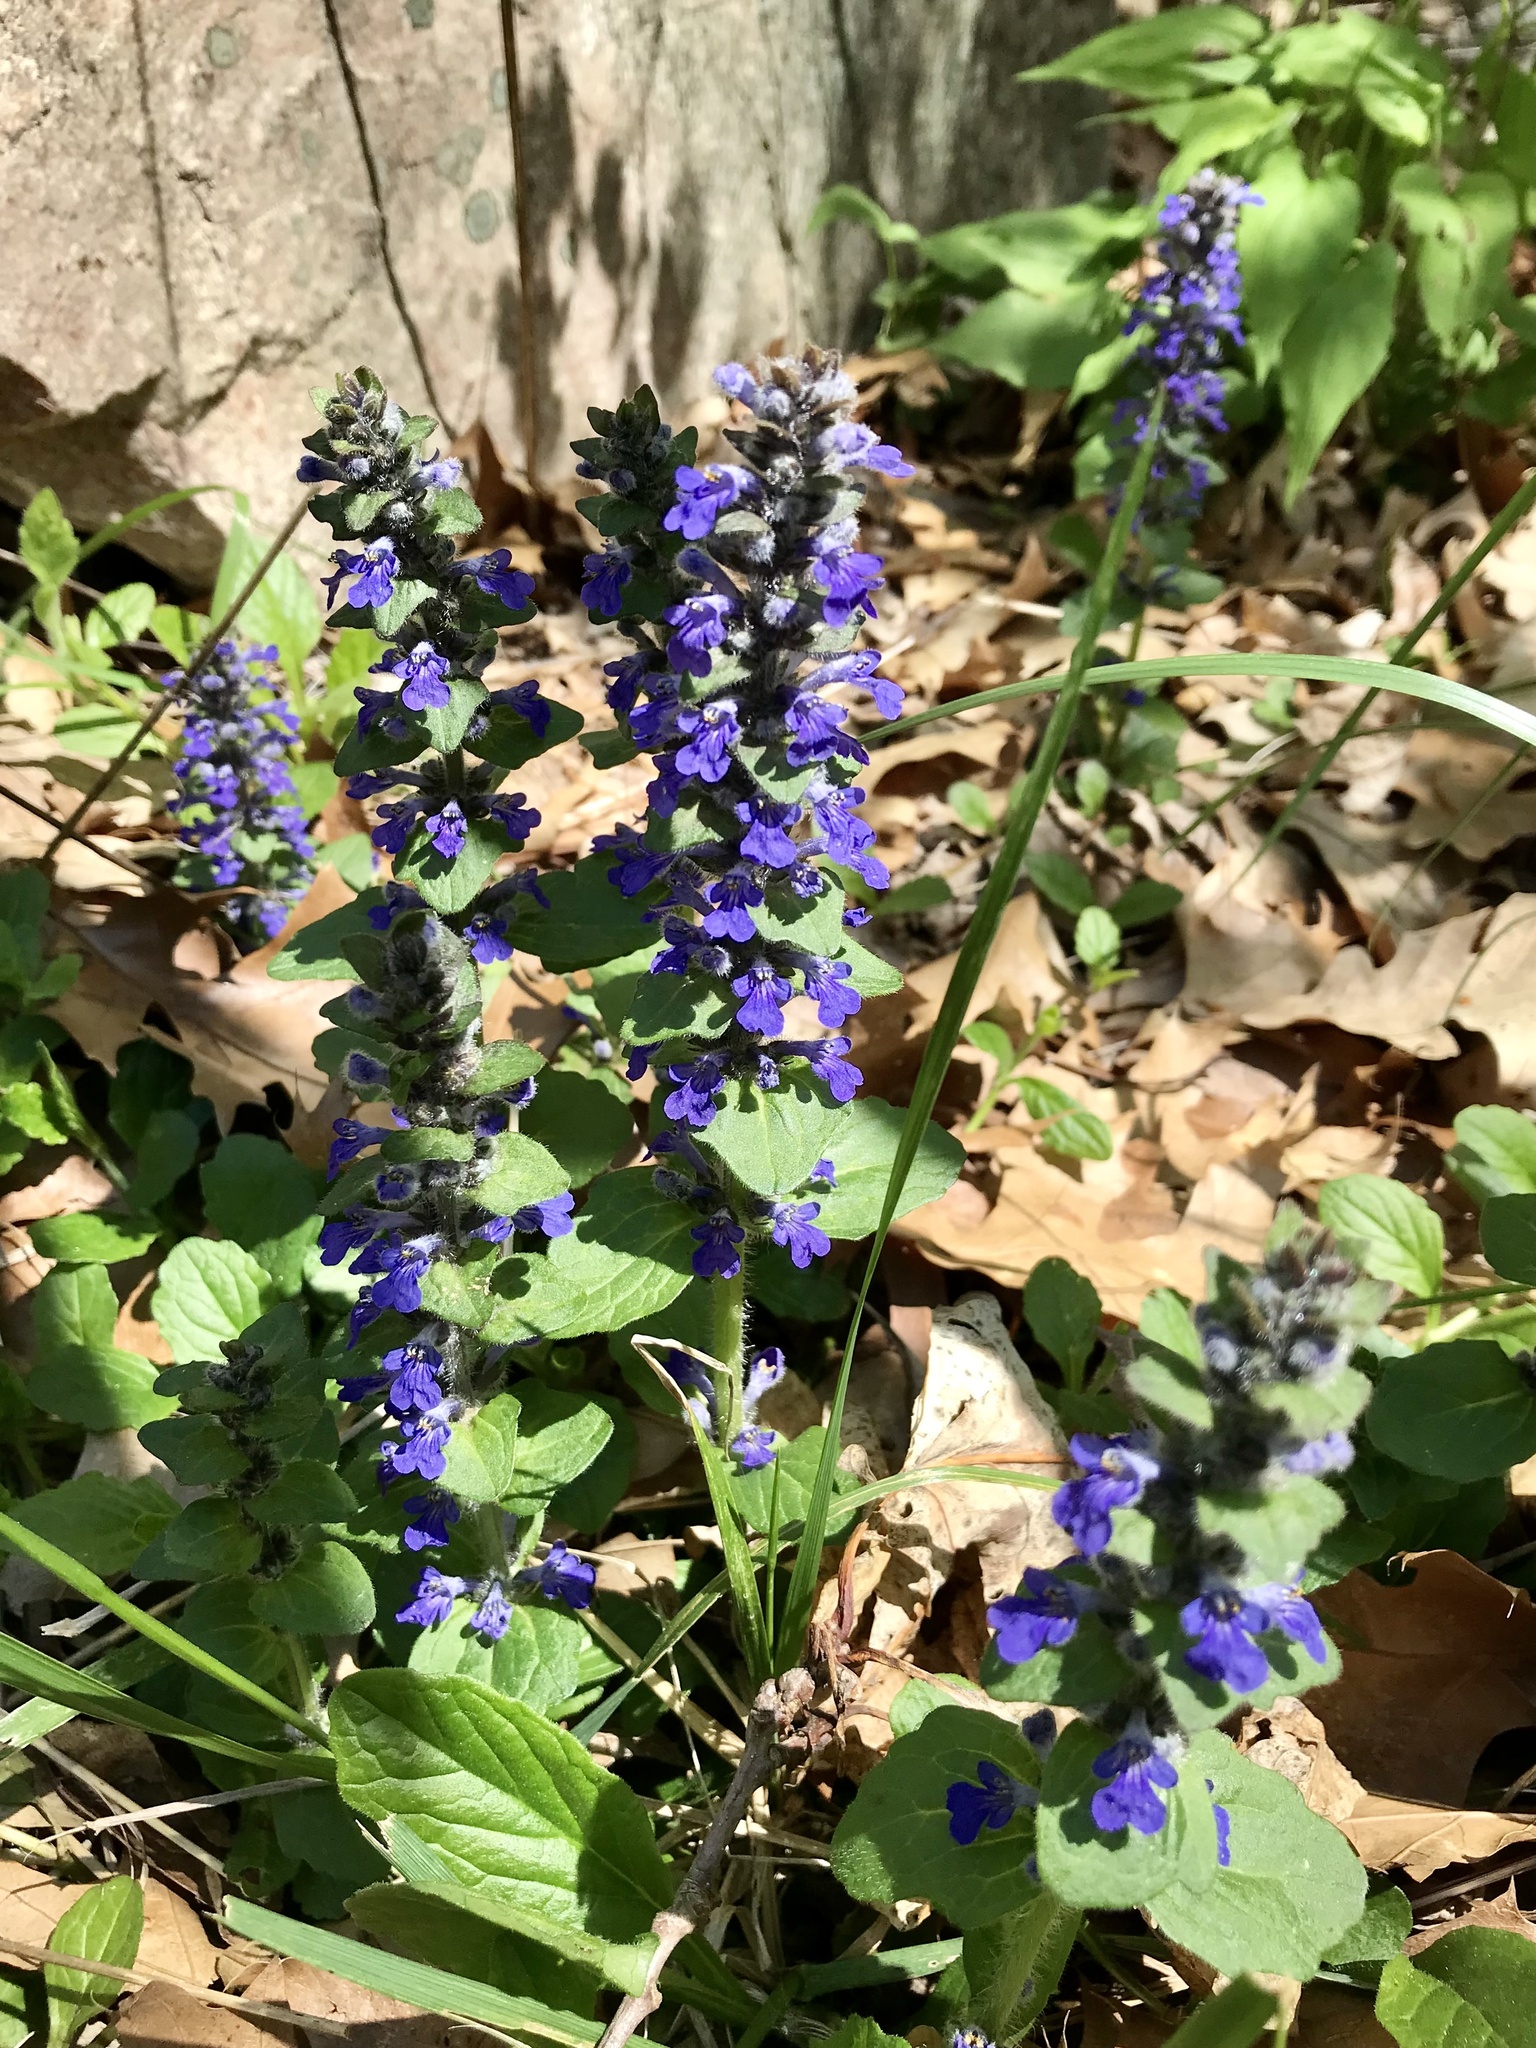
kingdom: Plantae
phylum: Tracheophyta
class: Magnoliopsida
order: Lamiales
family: Lamiaceae
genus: Ajuga
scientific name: Ajuga reptans
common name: Bugle
